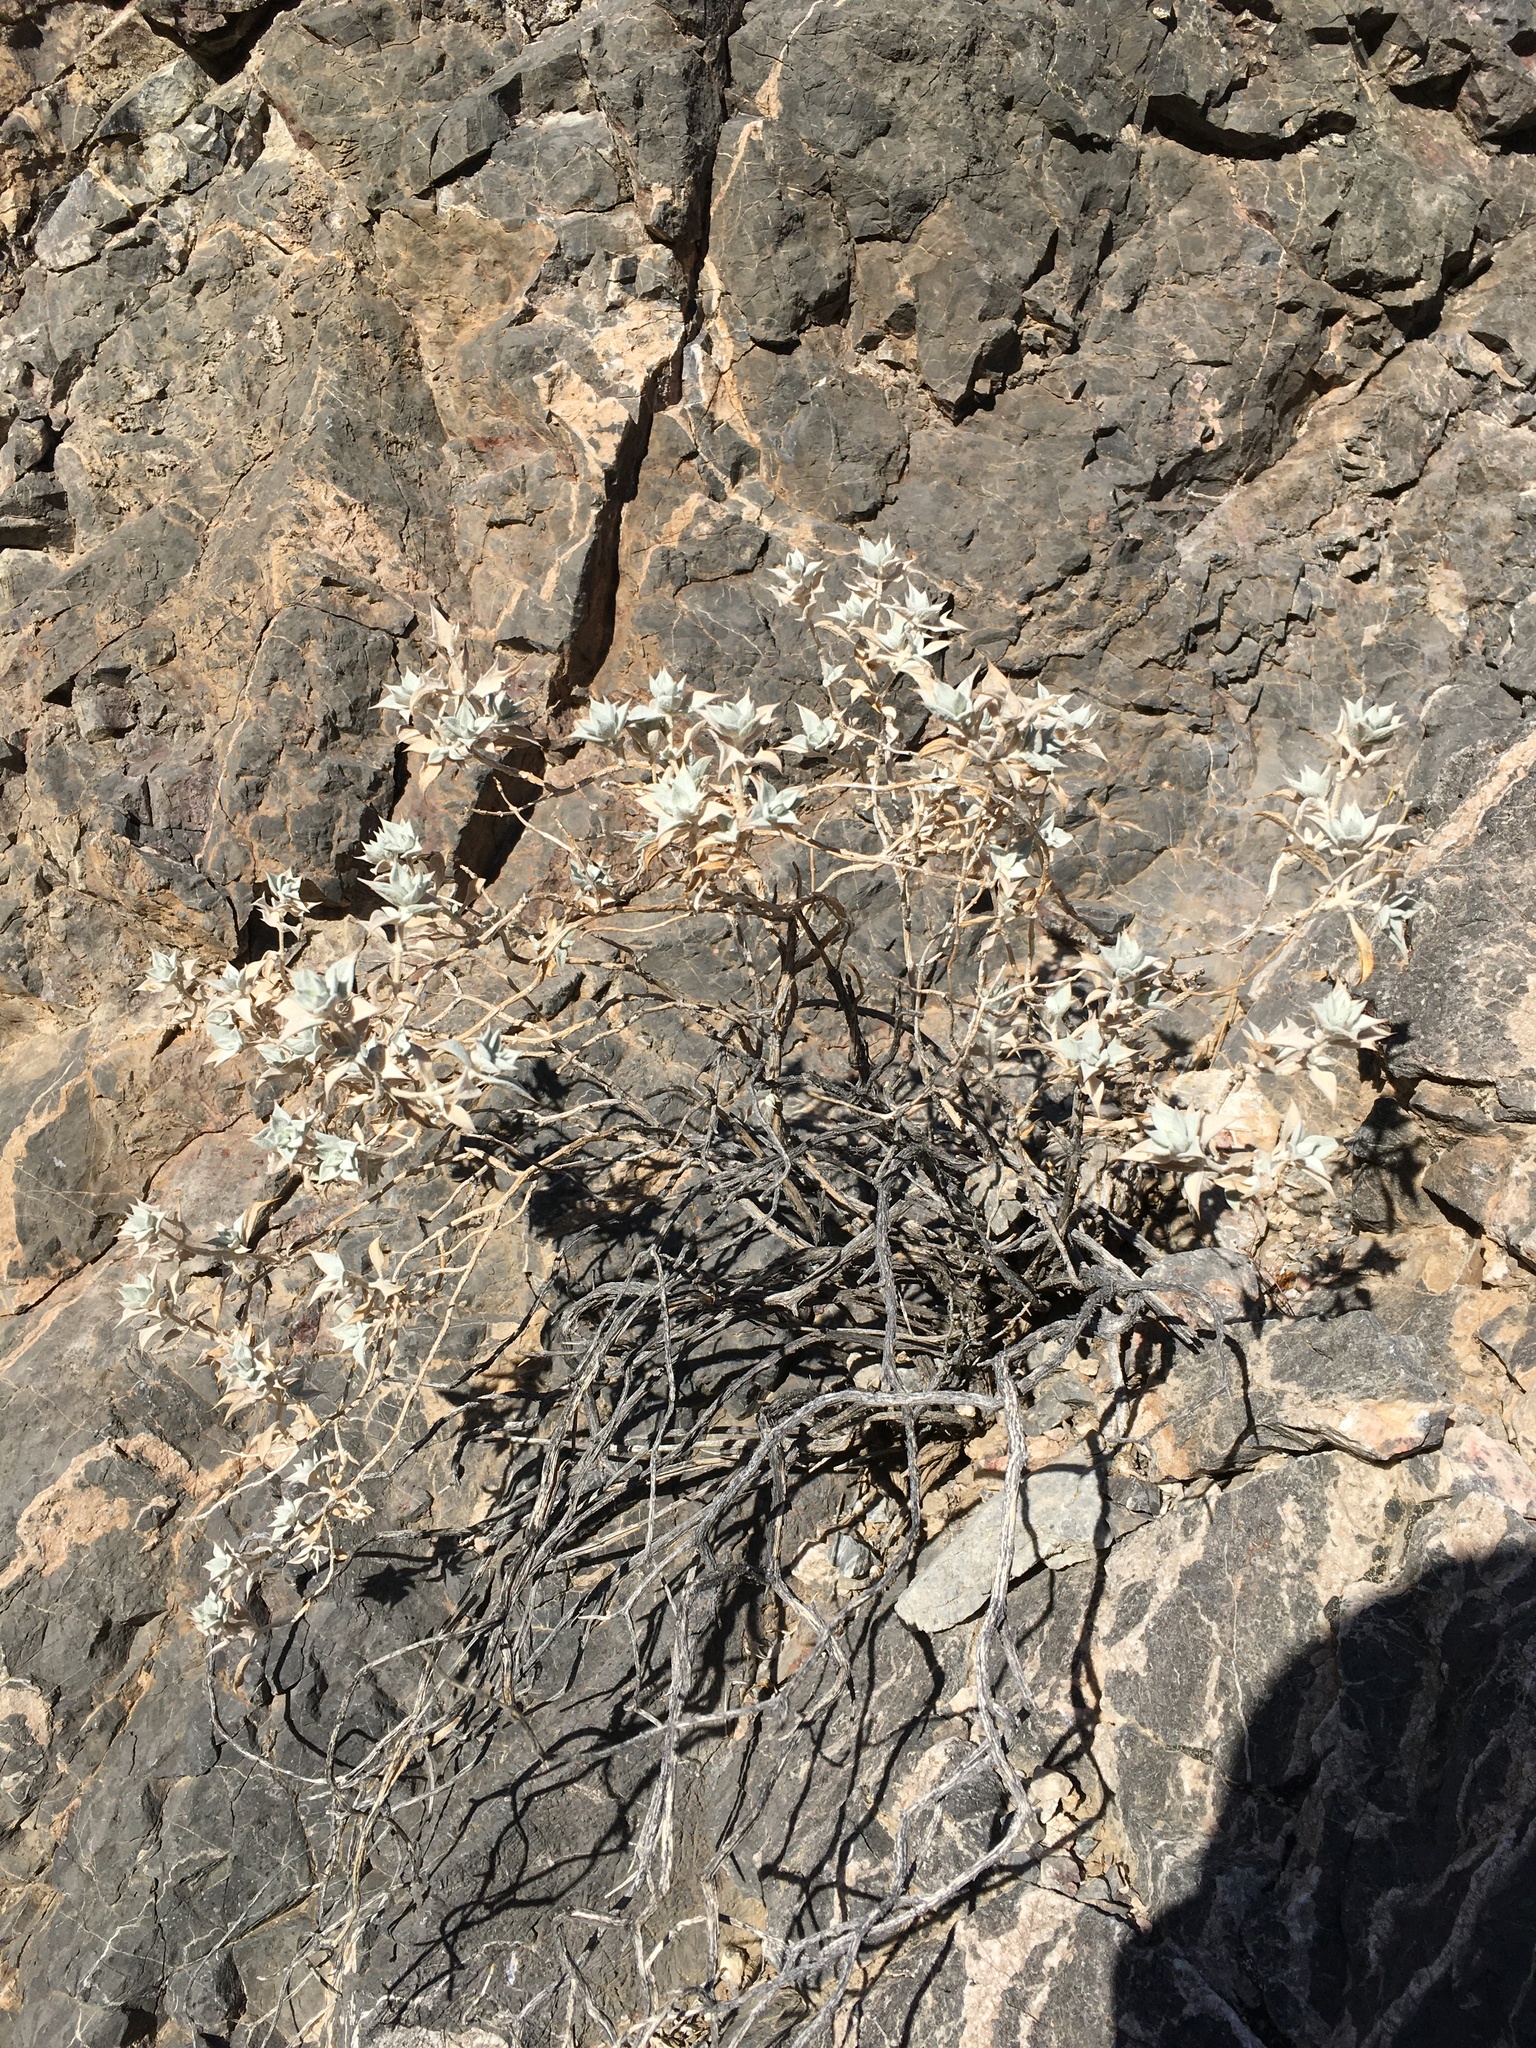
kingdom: Plantae
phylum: Tracheophyta
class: Magnoliopsida
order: Lamiales
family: Lamiaceae
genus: Salvia
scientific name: Salvia funerea
